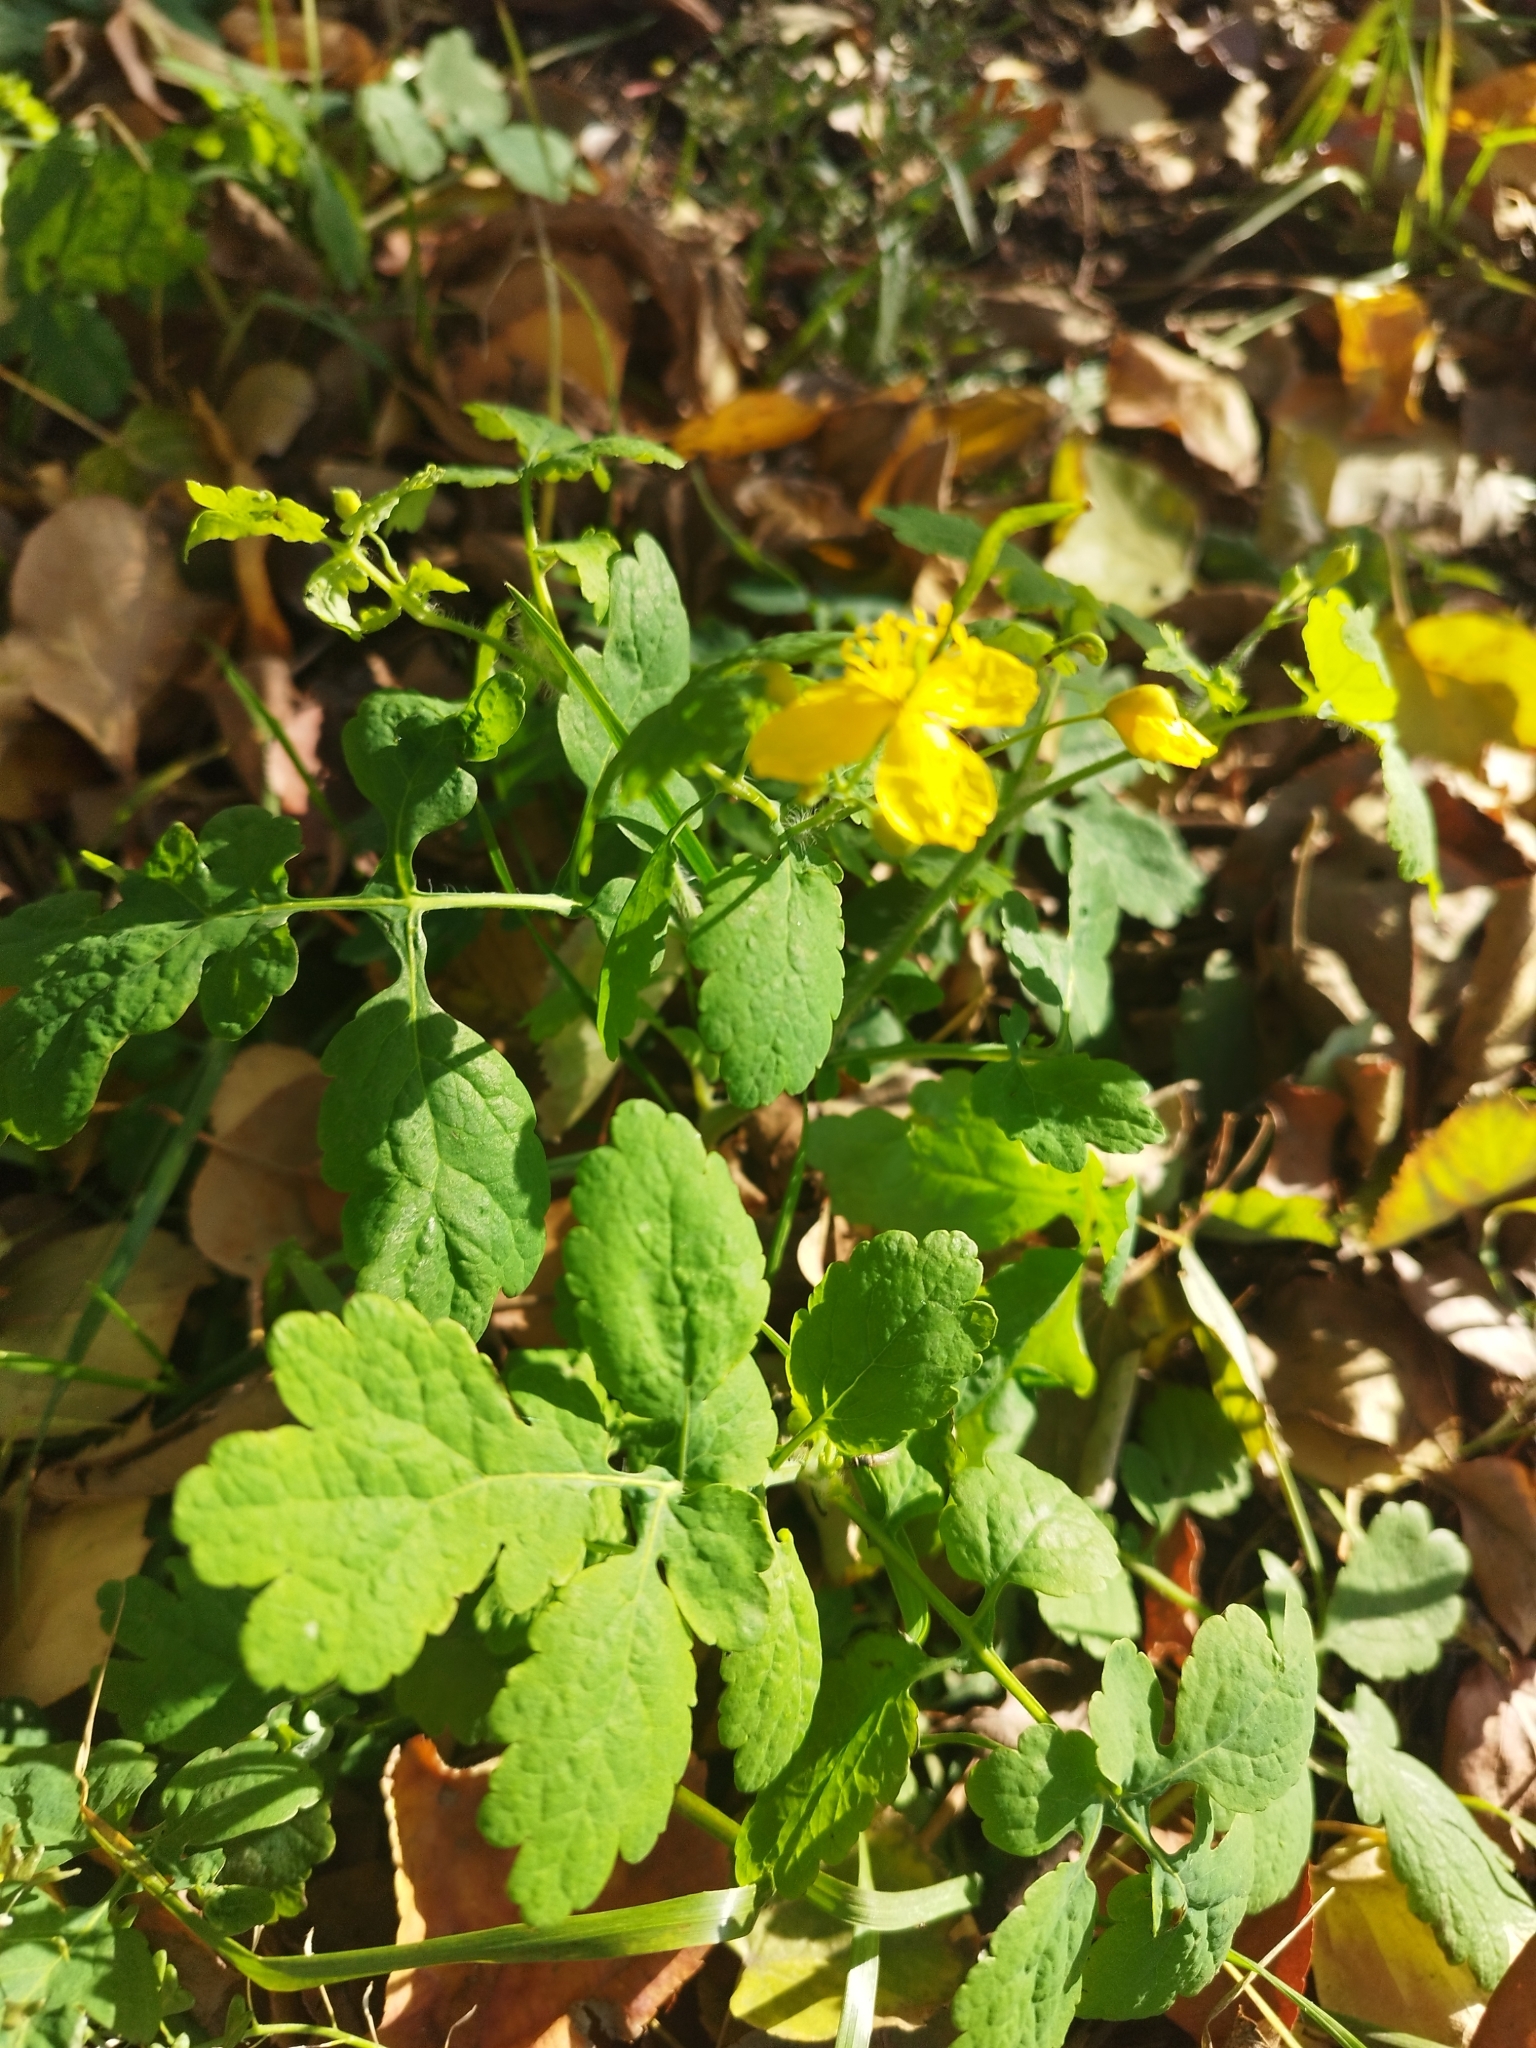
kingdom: Plantae
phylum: Tracheophyta
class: Magnoliopsida
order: Ranunculales
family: Papaveraceae
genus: Chelidonium
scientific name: Chelidonium majus
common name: Greater celandine
